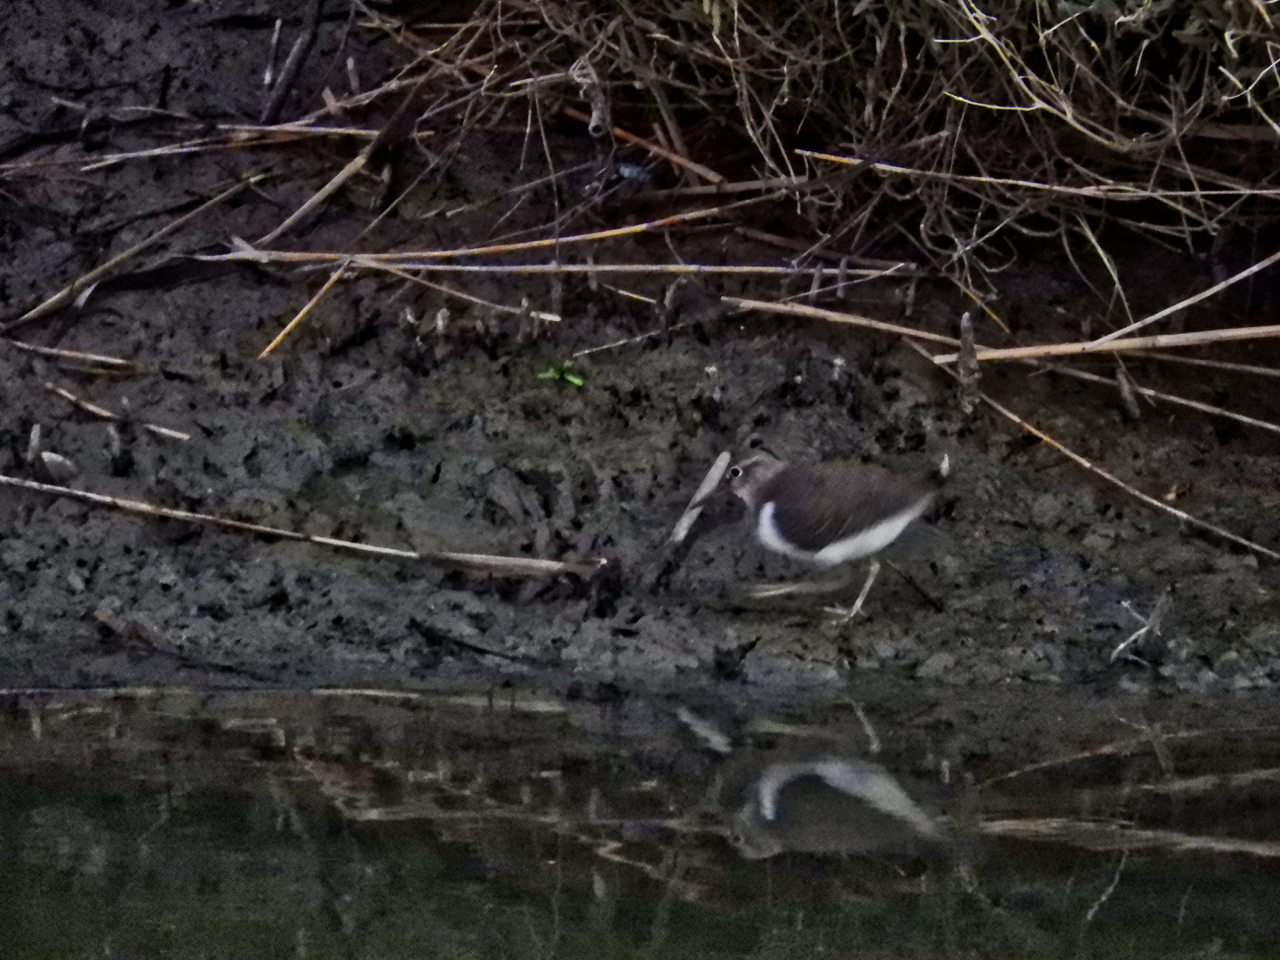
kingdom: Animalia
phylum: Chordata
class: Aves
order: Charadriiformes
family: Scolopacidae
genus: Actitis
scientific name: Actitis hypoleucos
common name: Common sandpiper
